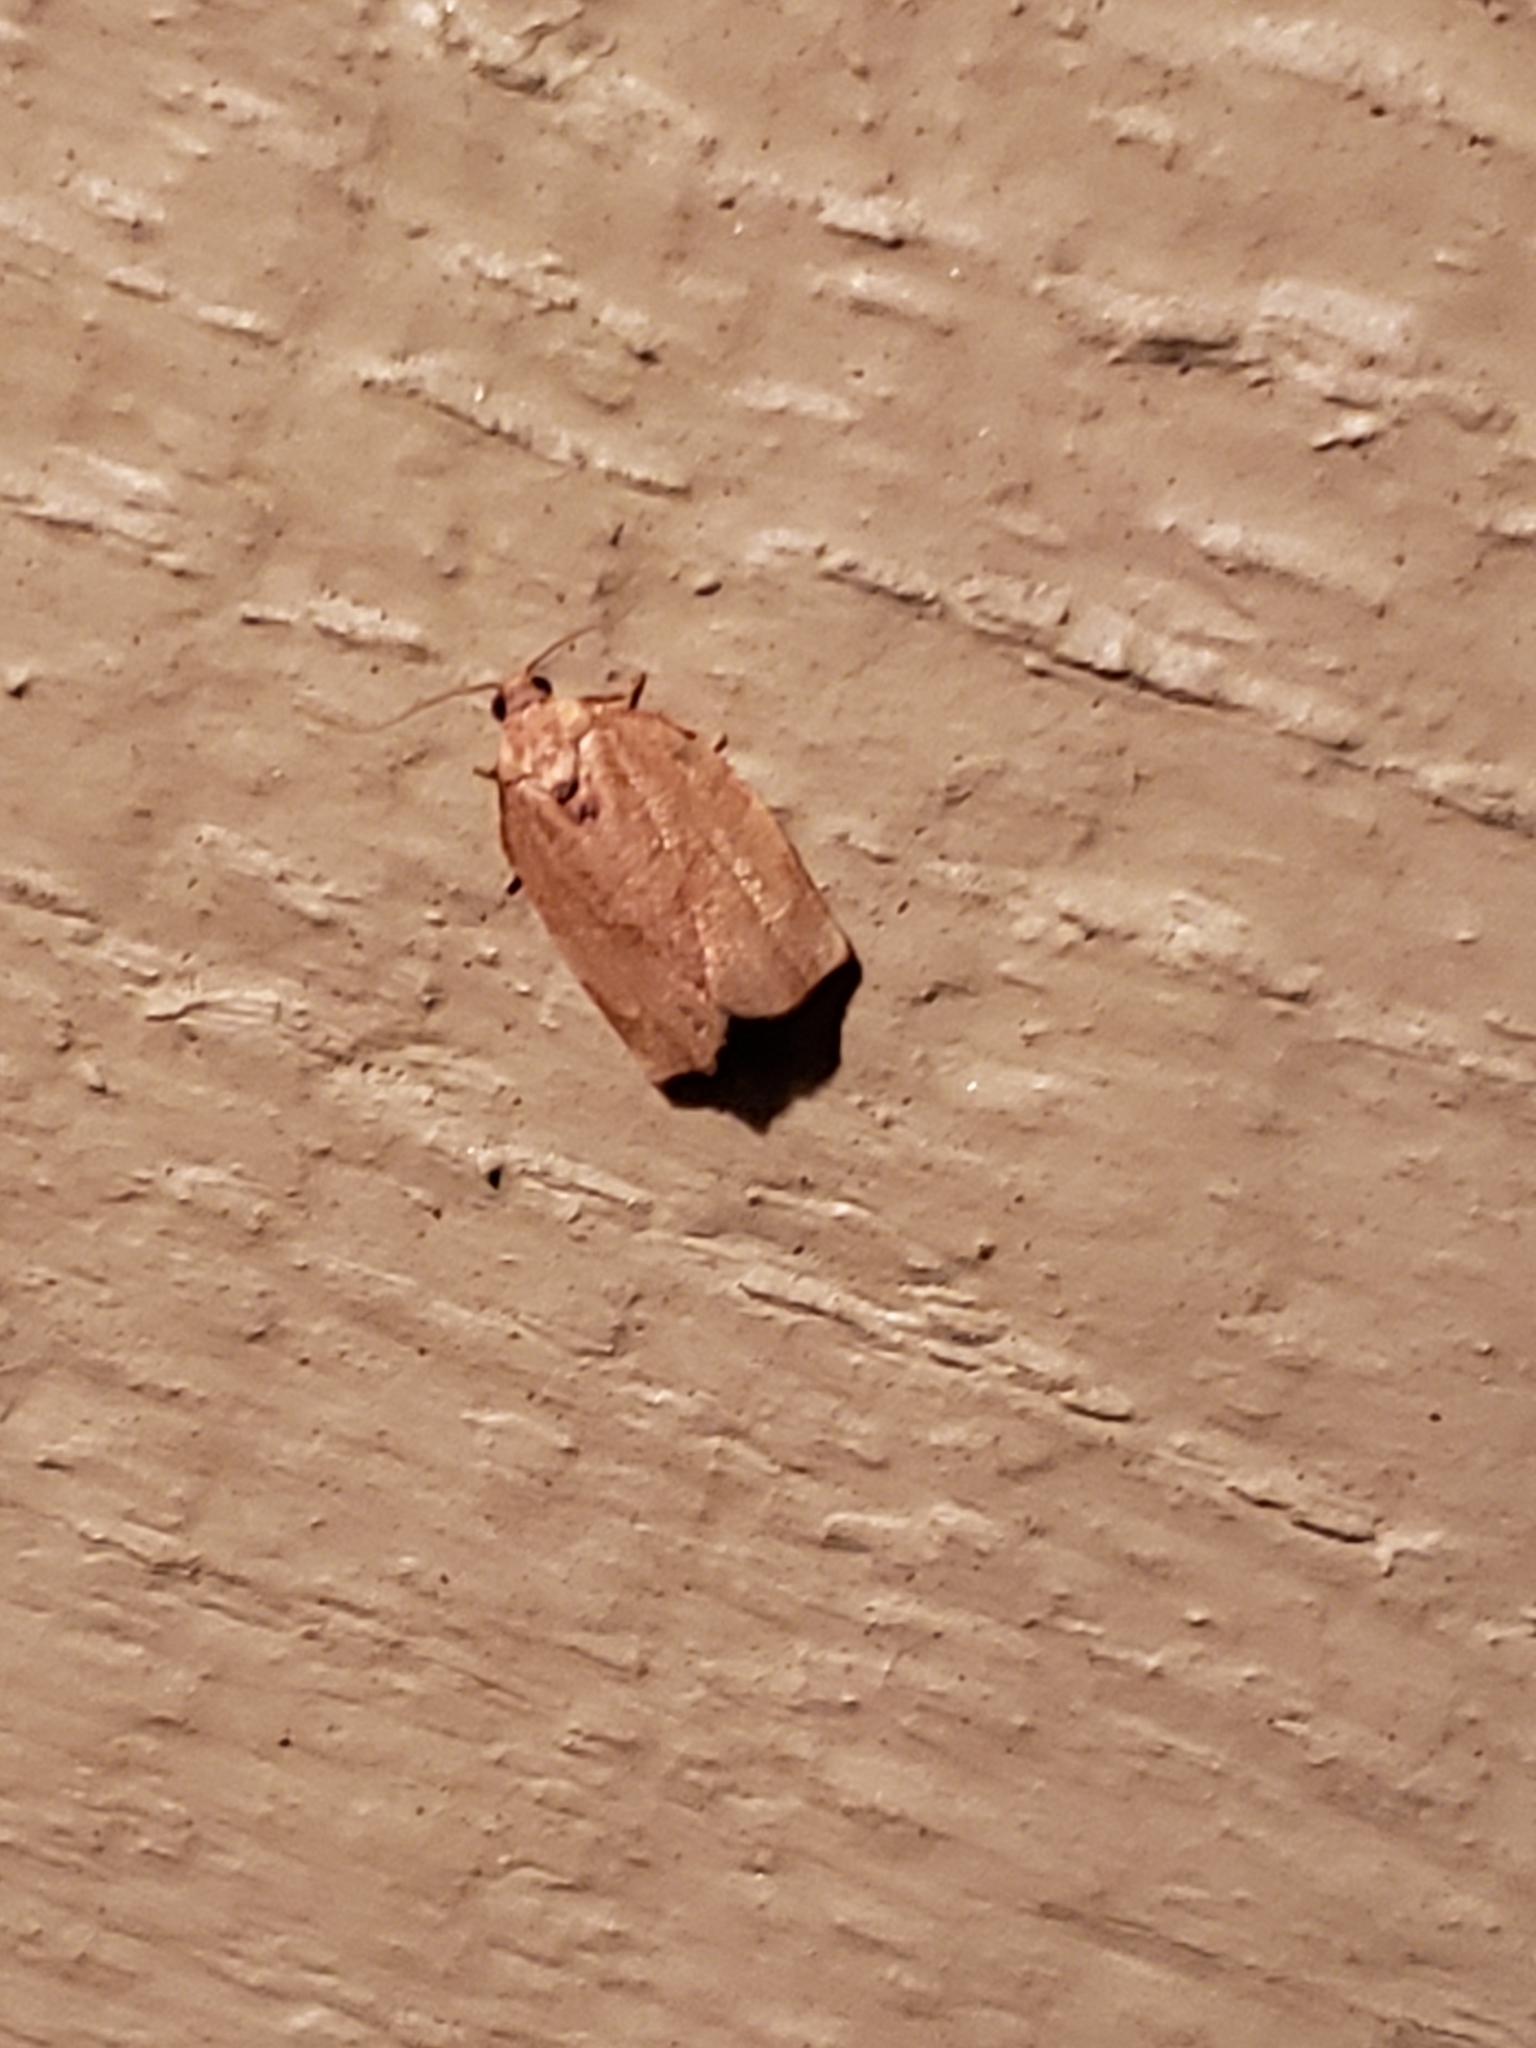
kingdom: Animalia
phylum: Arthropoda
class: Insecta
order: Lepidoptera
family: Tortricidae
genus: Choristoneura
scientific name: Choristoneura rosaceana
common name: Oblique-banded leafroller moth
